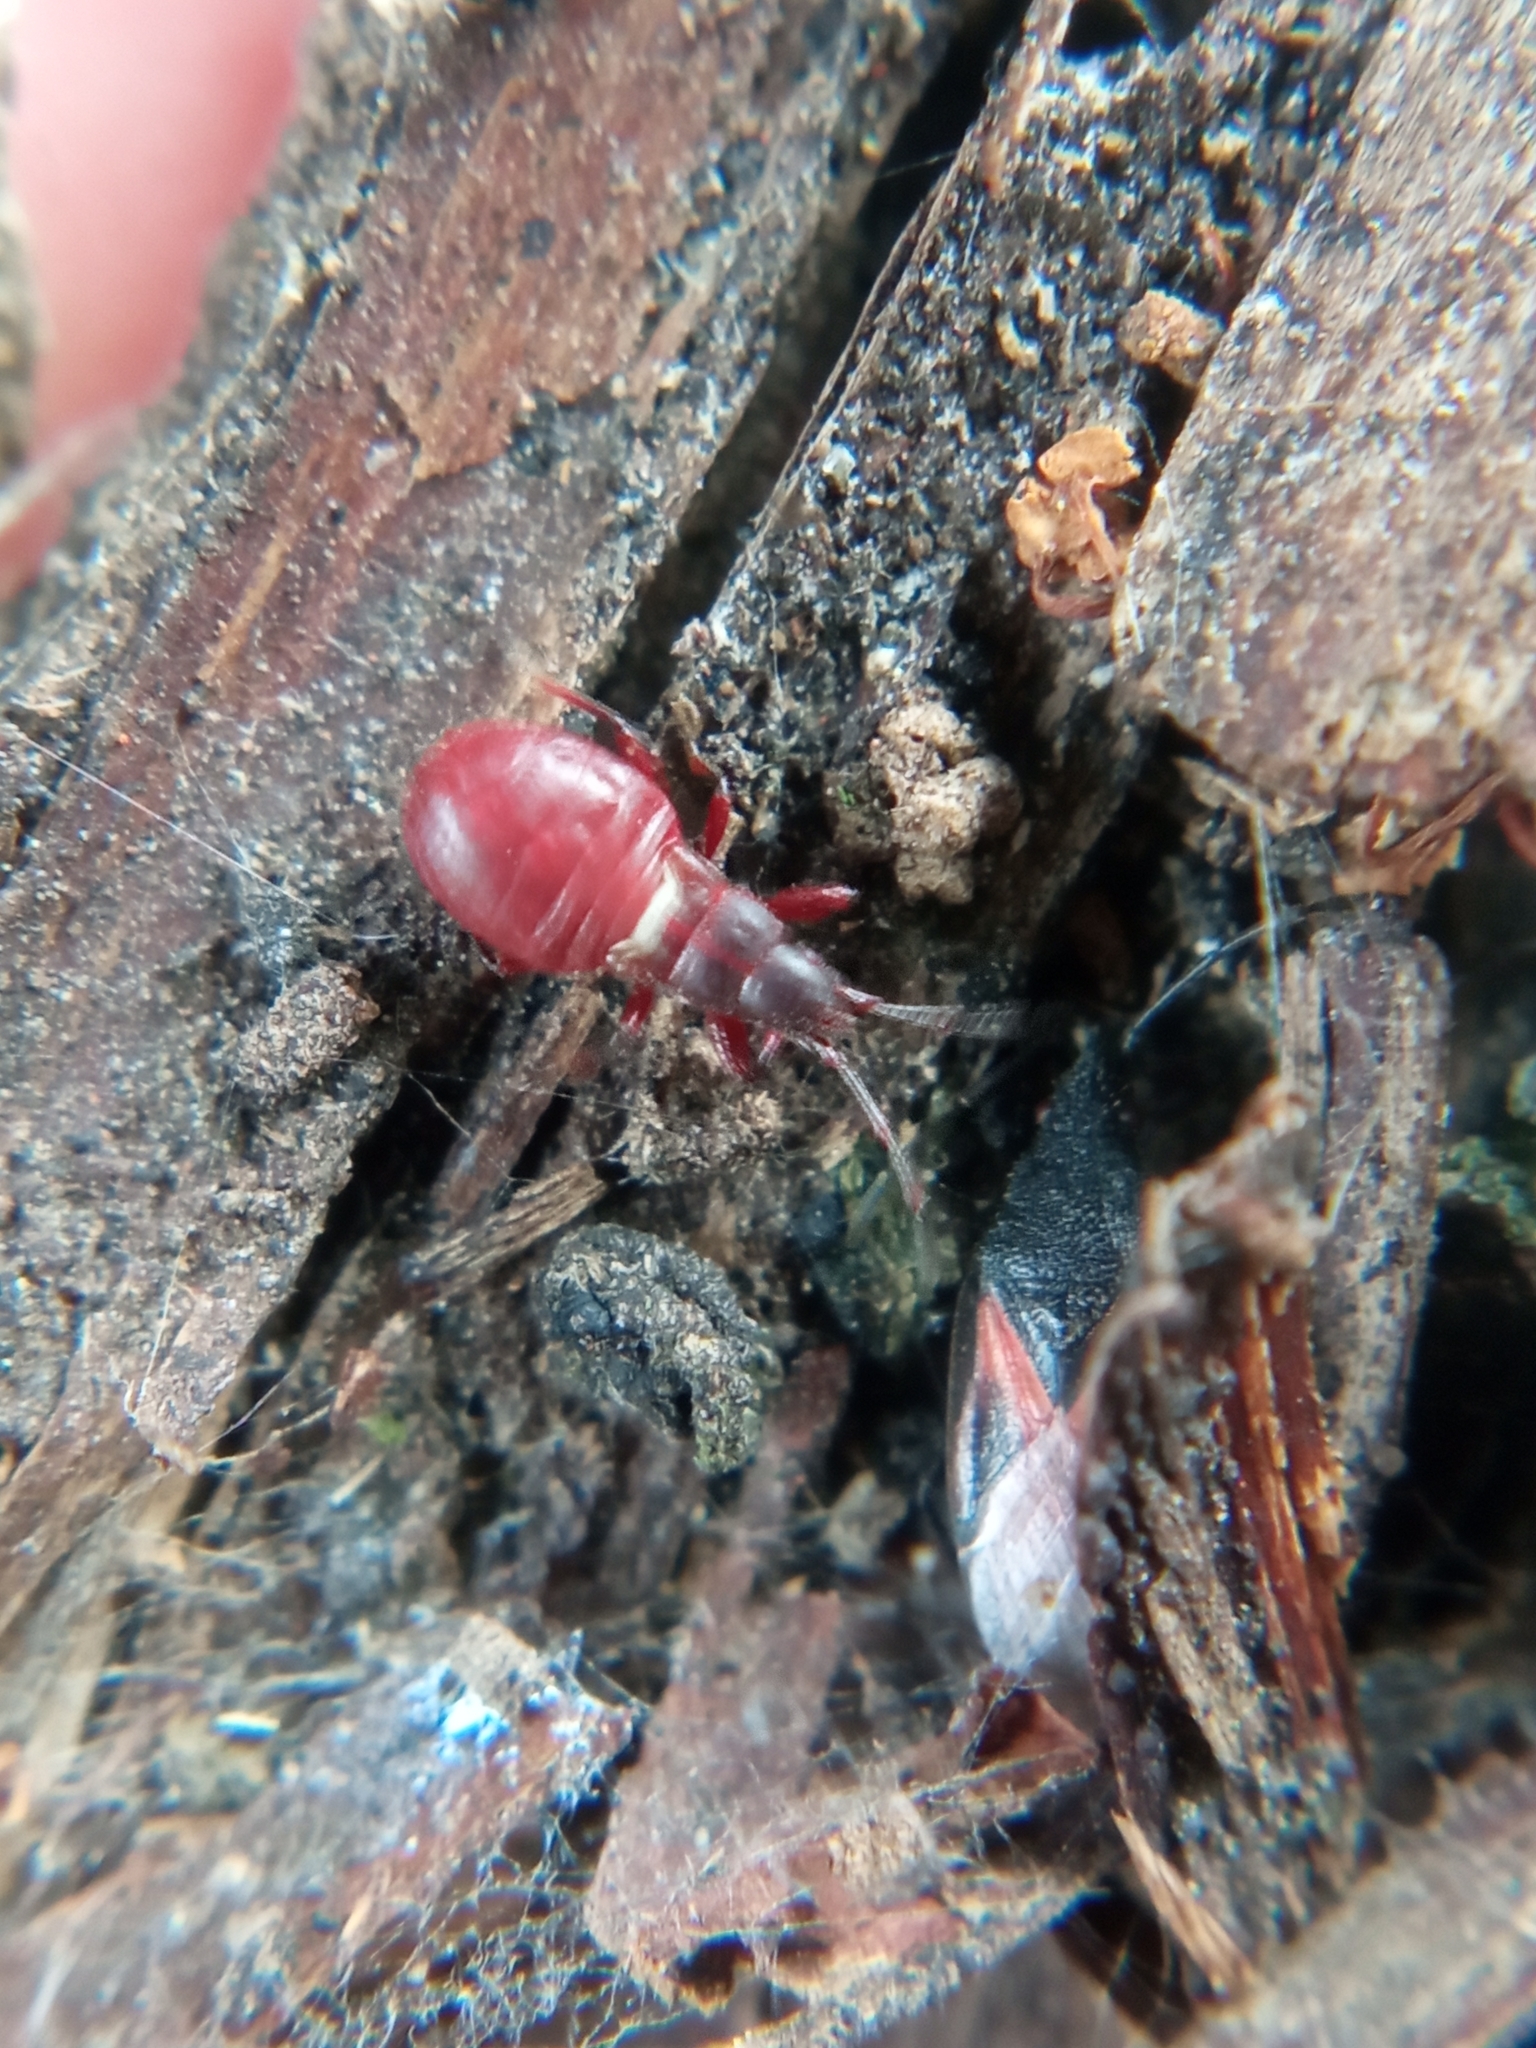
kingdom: Animalia
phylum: Arthropoda
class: Insecta
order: Hemiptera
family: Oxycarenidae
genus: Oxycarenus
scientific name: Oxycarenus lavaterae
